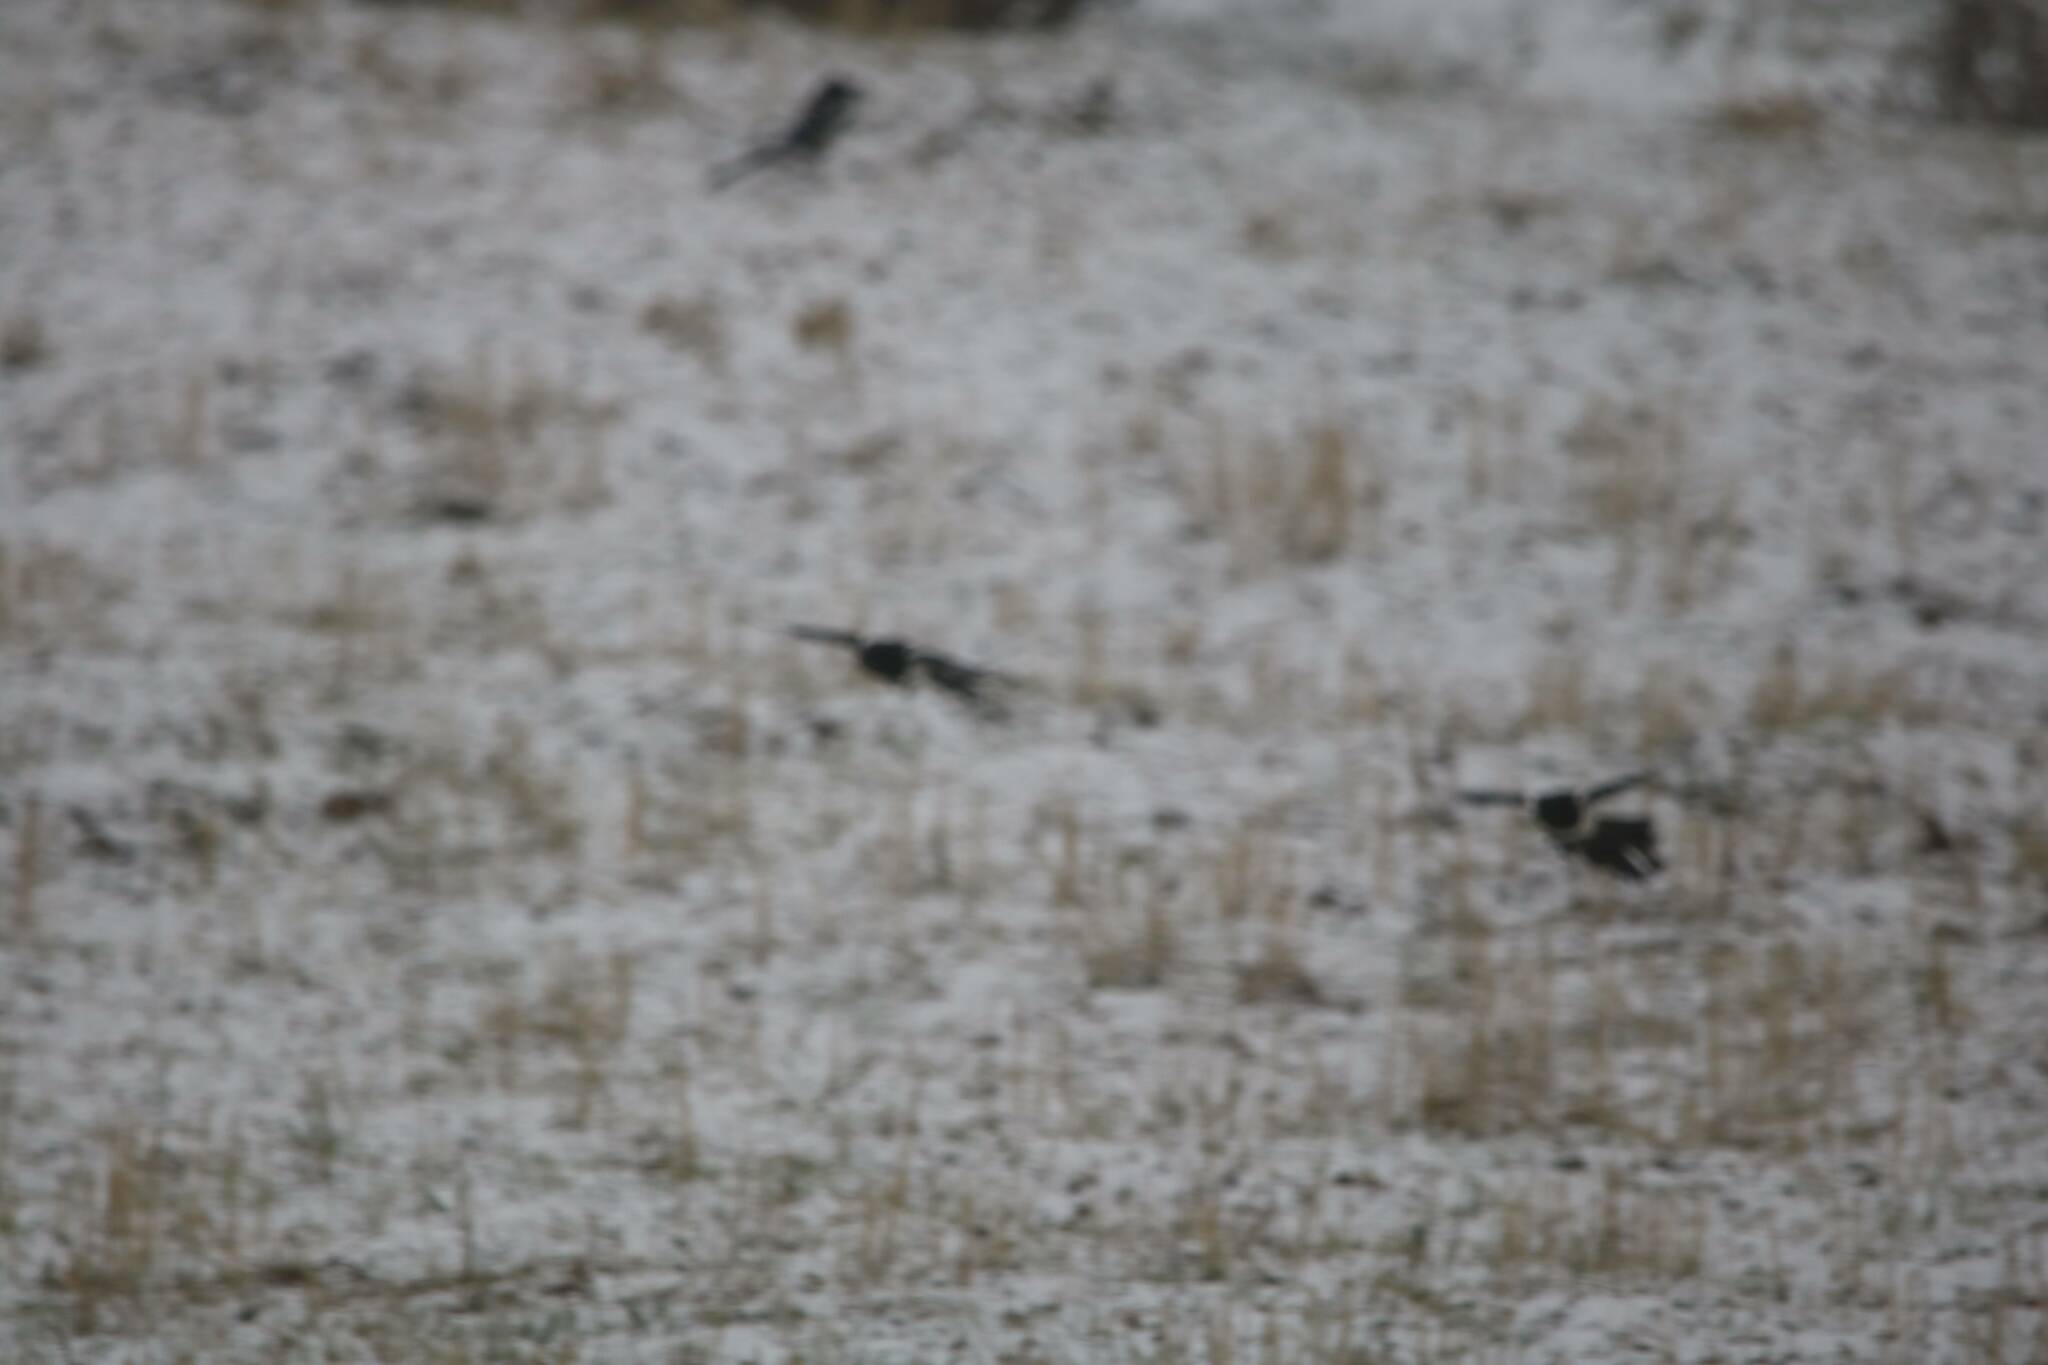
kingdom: Animalia
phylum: Chordata
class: Aves
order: Passeriformes
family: Corvidae
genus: Pica
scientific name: Pica mauritanica
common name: Maghreb magpie
